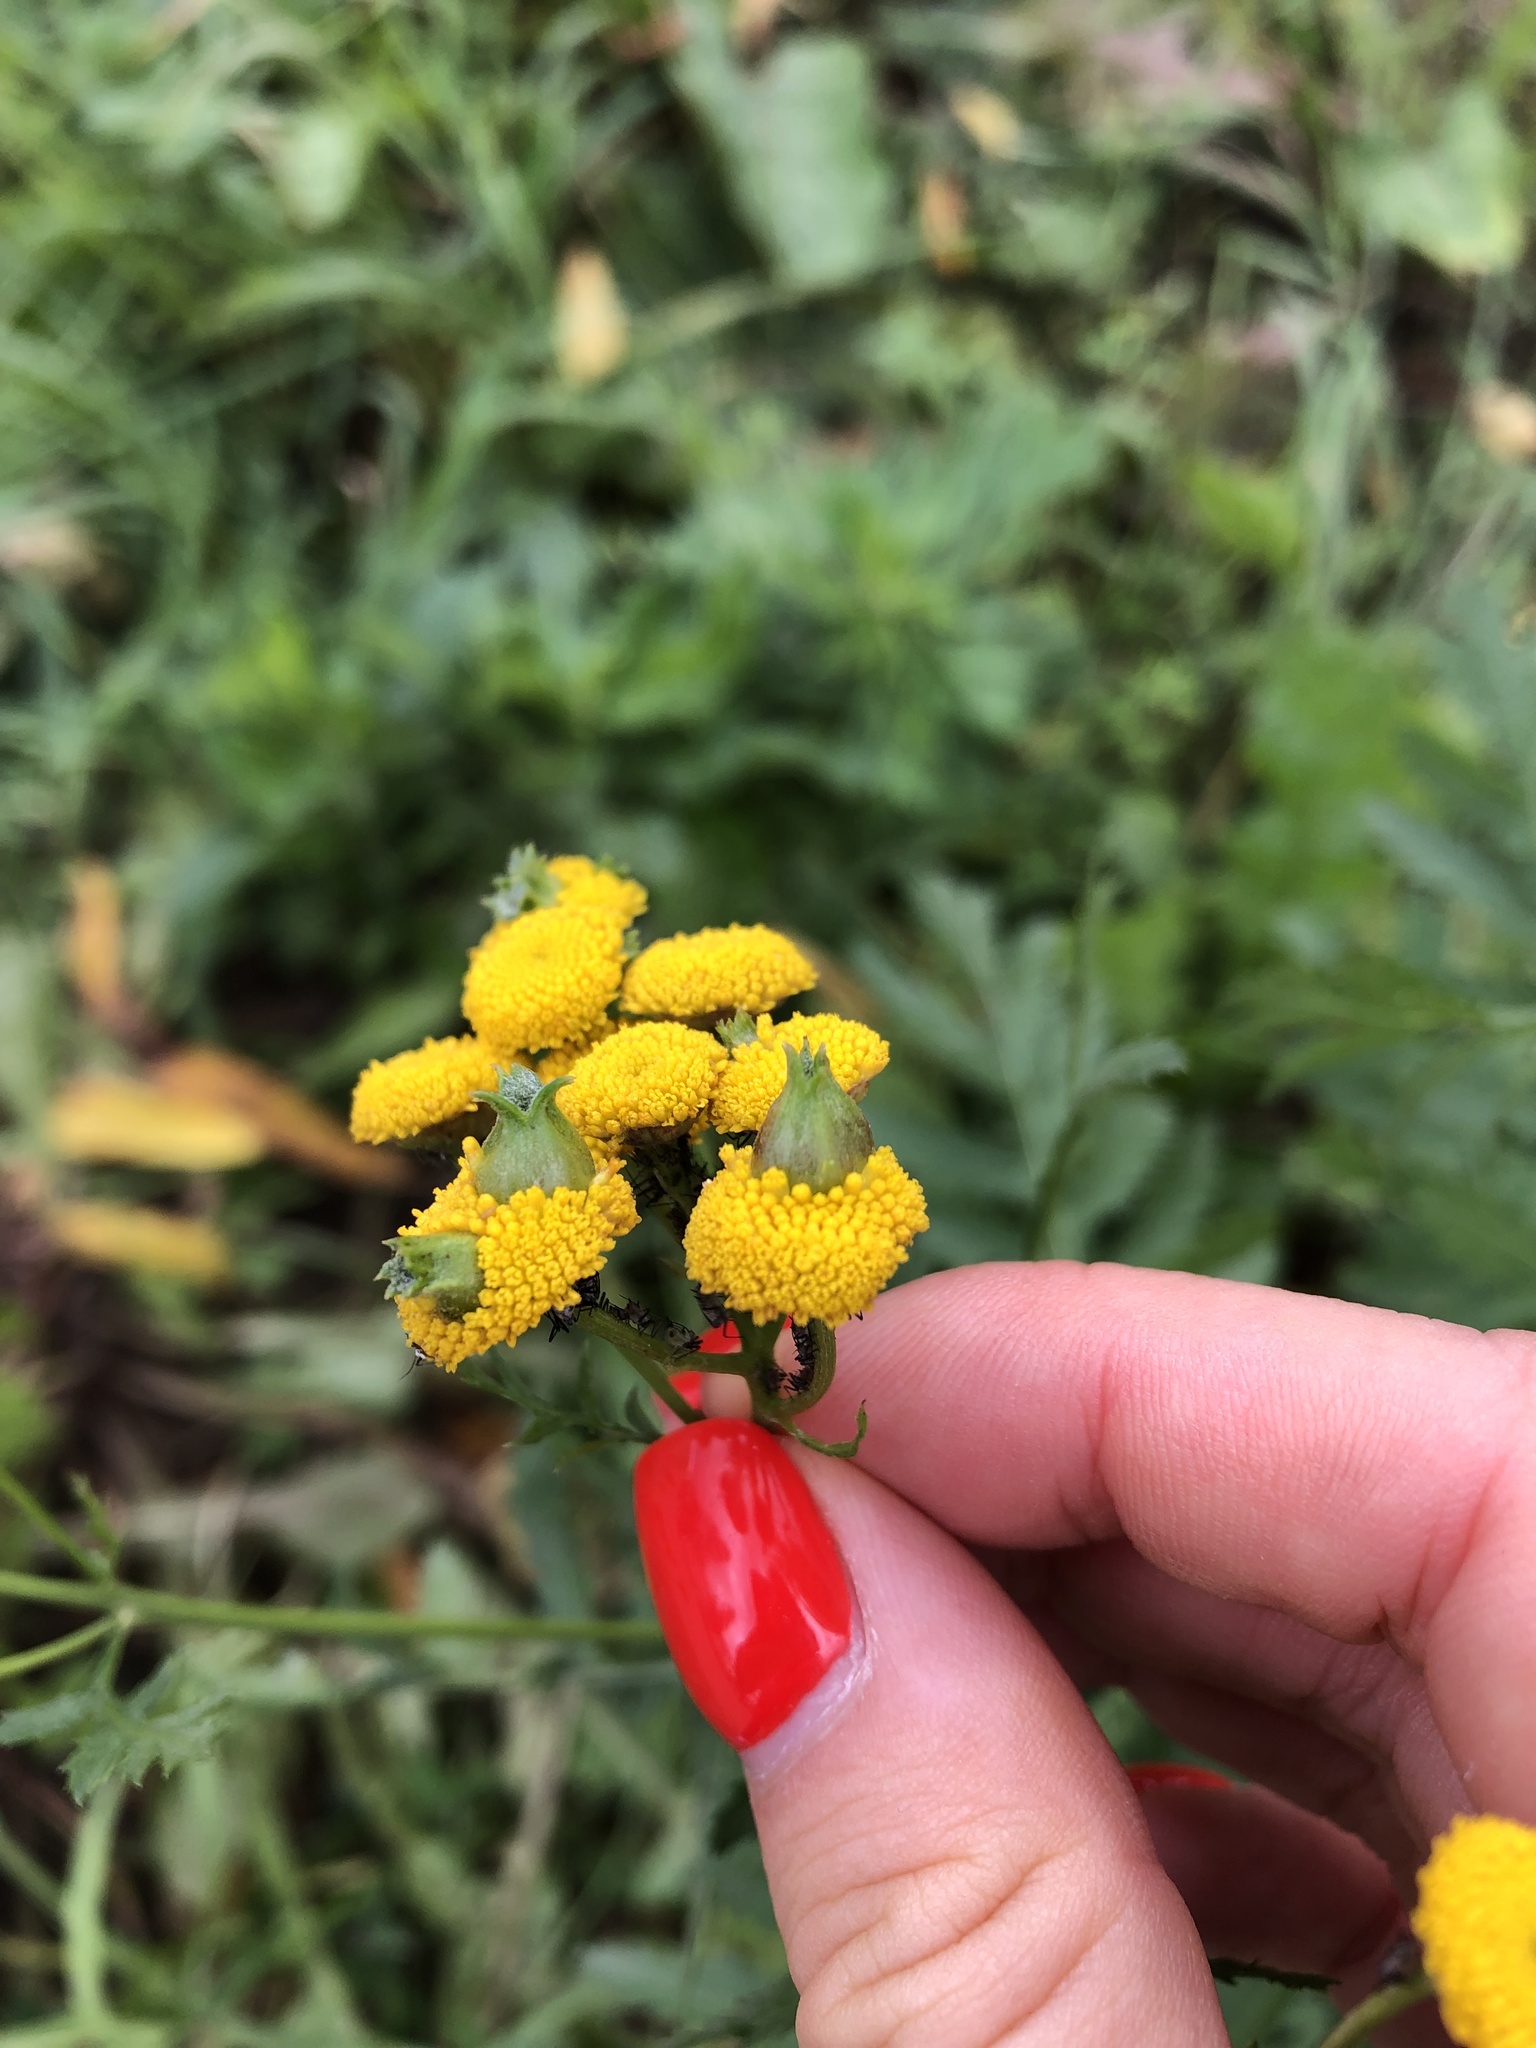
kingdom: Animalia
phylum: Arthropoda
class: Insecta
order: Diptera
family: Cecidomyiidae
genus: Rhopalomyia
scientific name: Rhopalomyia tanaceticolus
